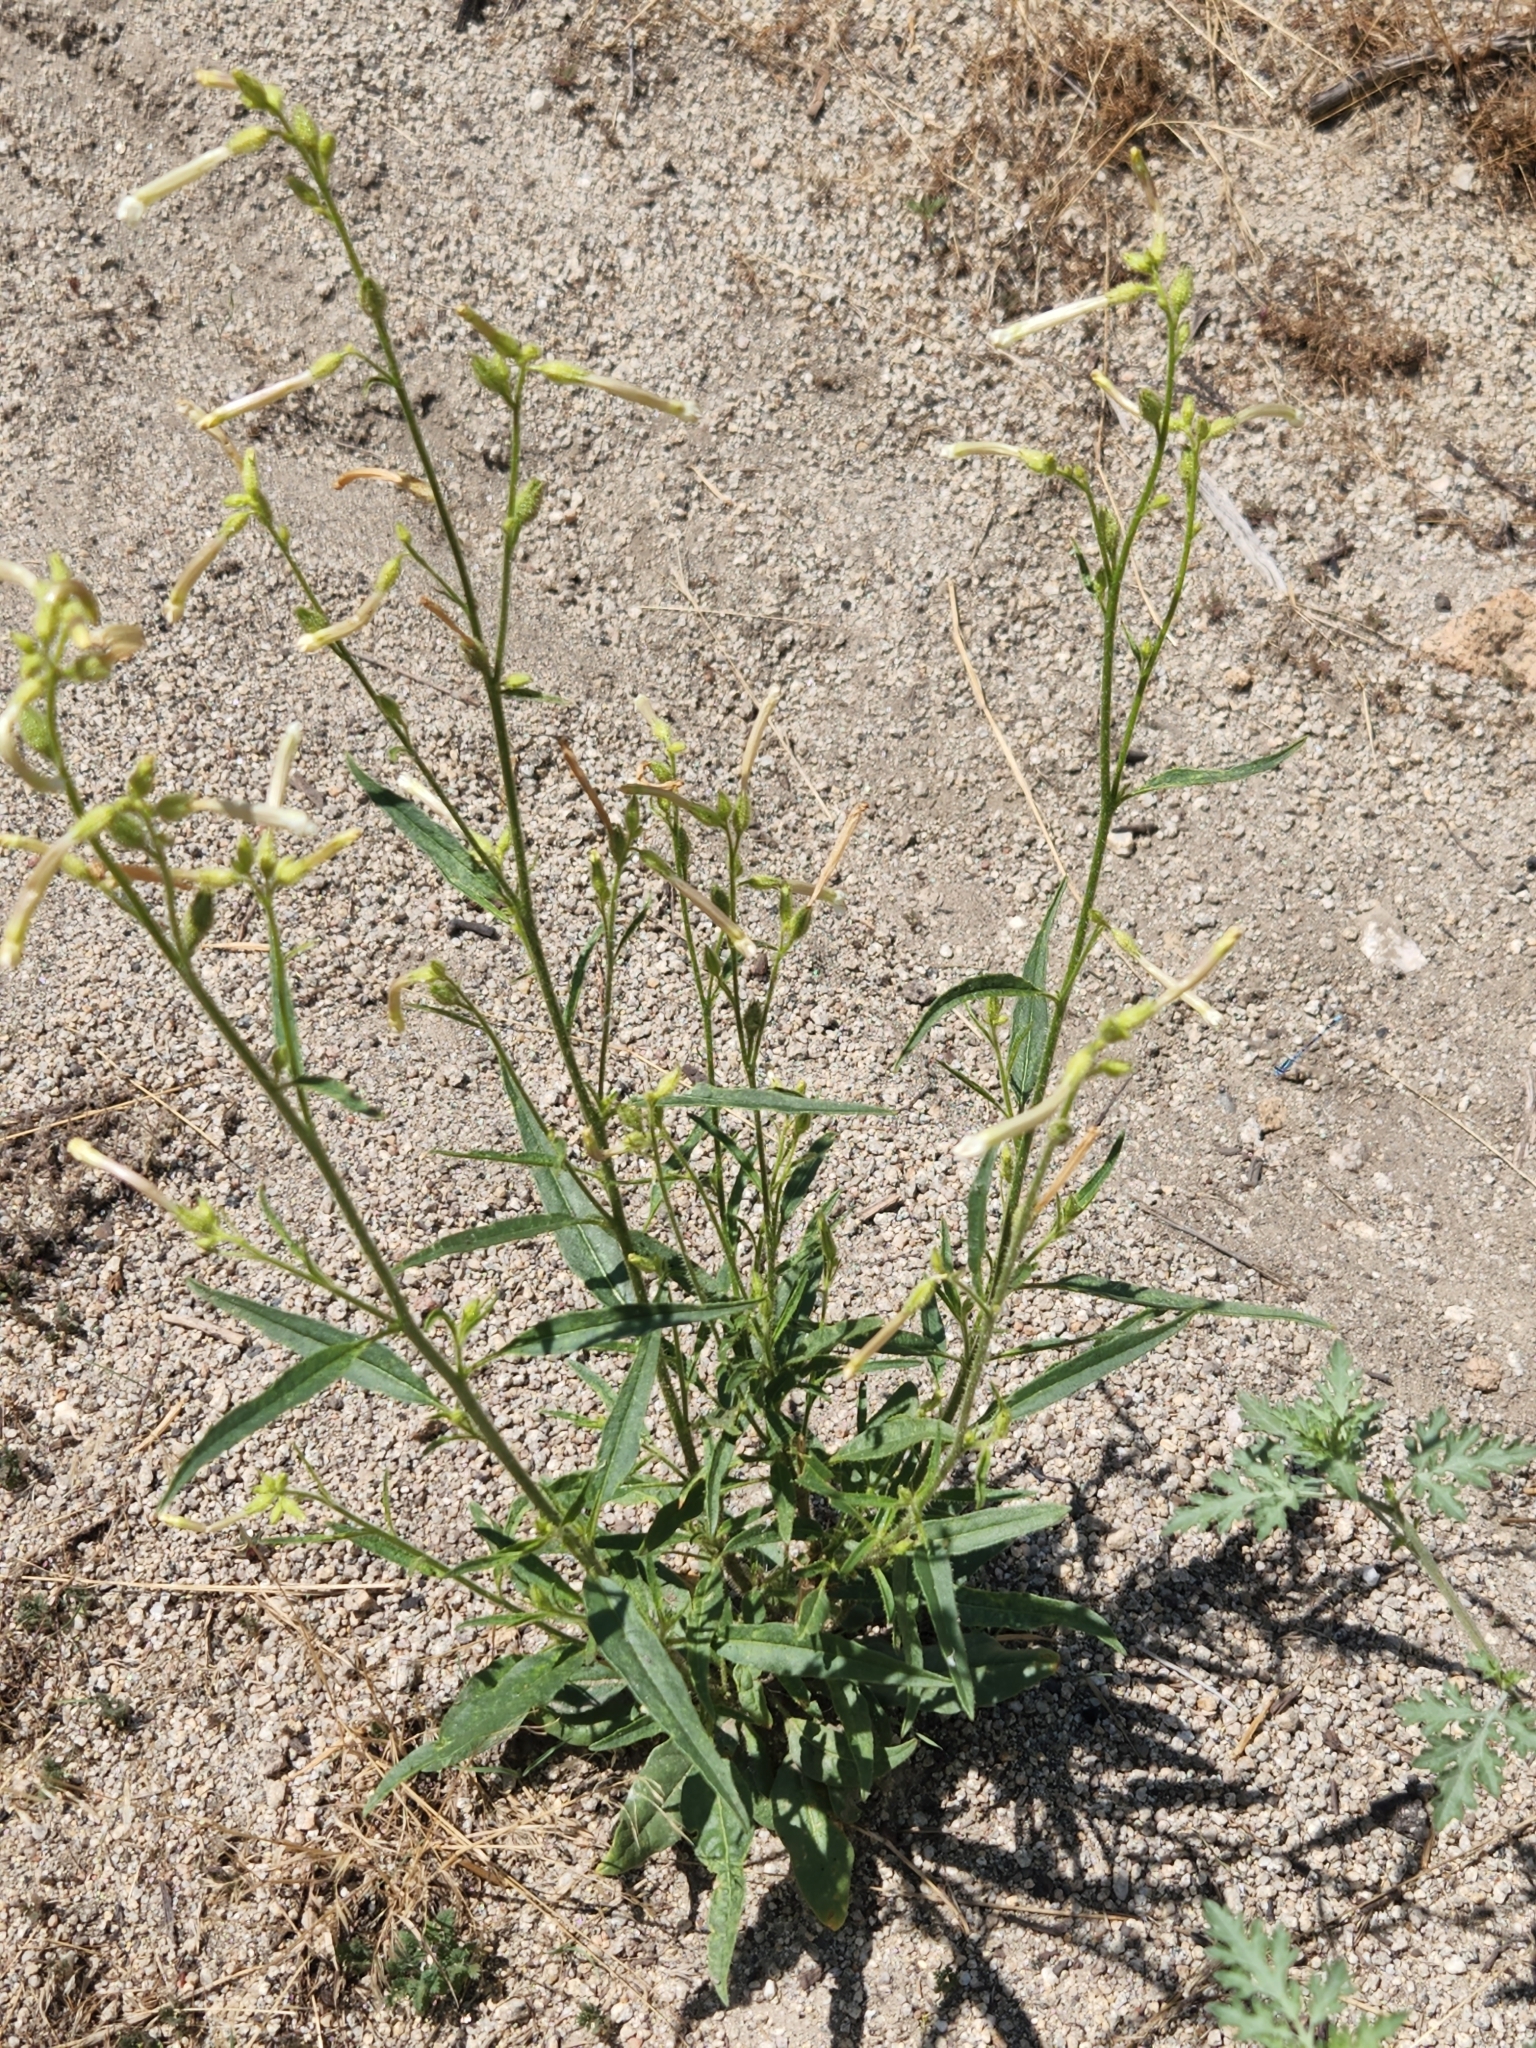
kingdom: Plantae
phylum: Tracheophyta
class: Magnoliopsida
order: Solanales
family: Solanaceae
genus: Nicotiana
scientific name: Nicotiana attenuata
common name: Coyote tobacco
